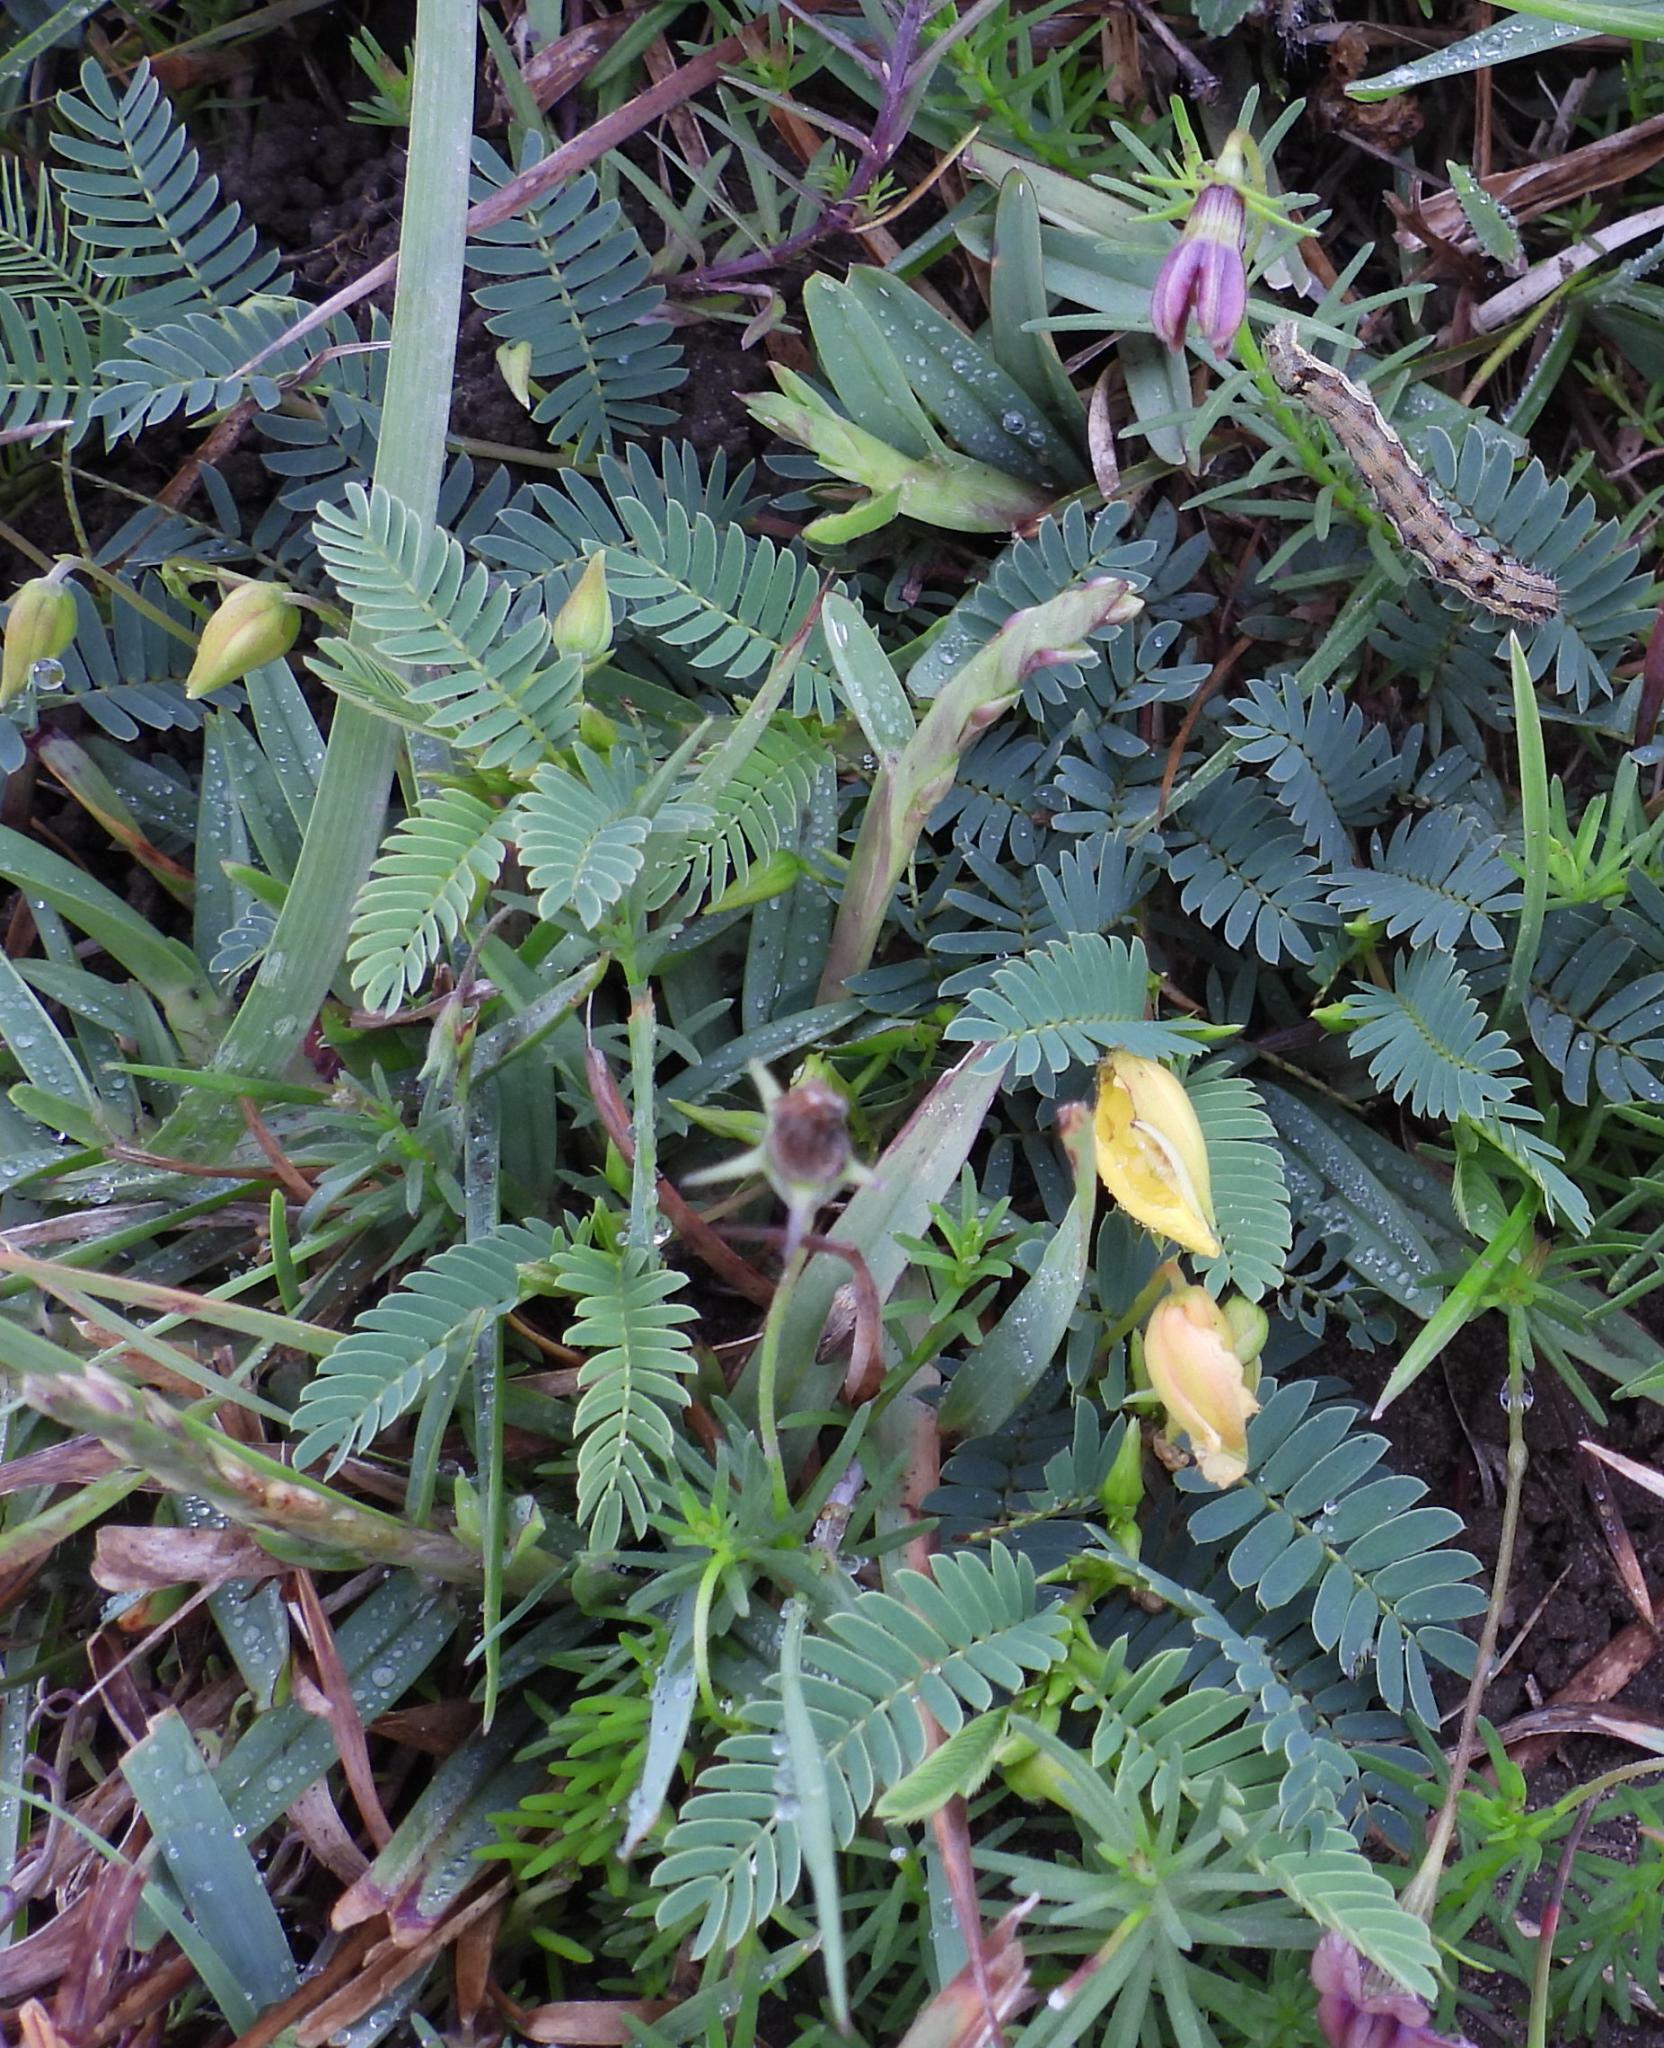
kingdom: Plantae
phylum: Tracheophyta
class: Magnoliopsida
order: Fabales
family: Fabaceae
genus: Chamaecrista
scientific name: Chamaecrista capensis
